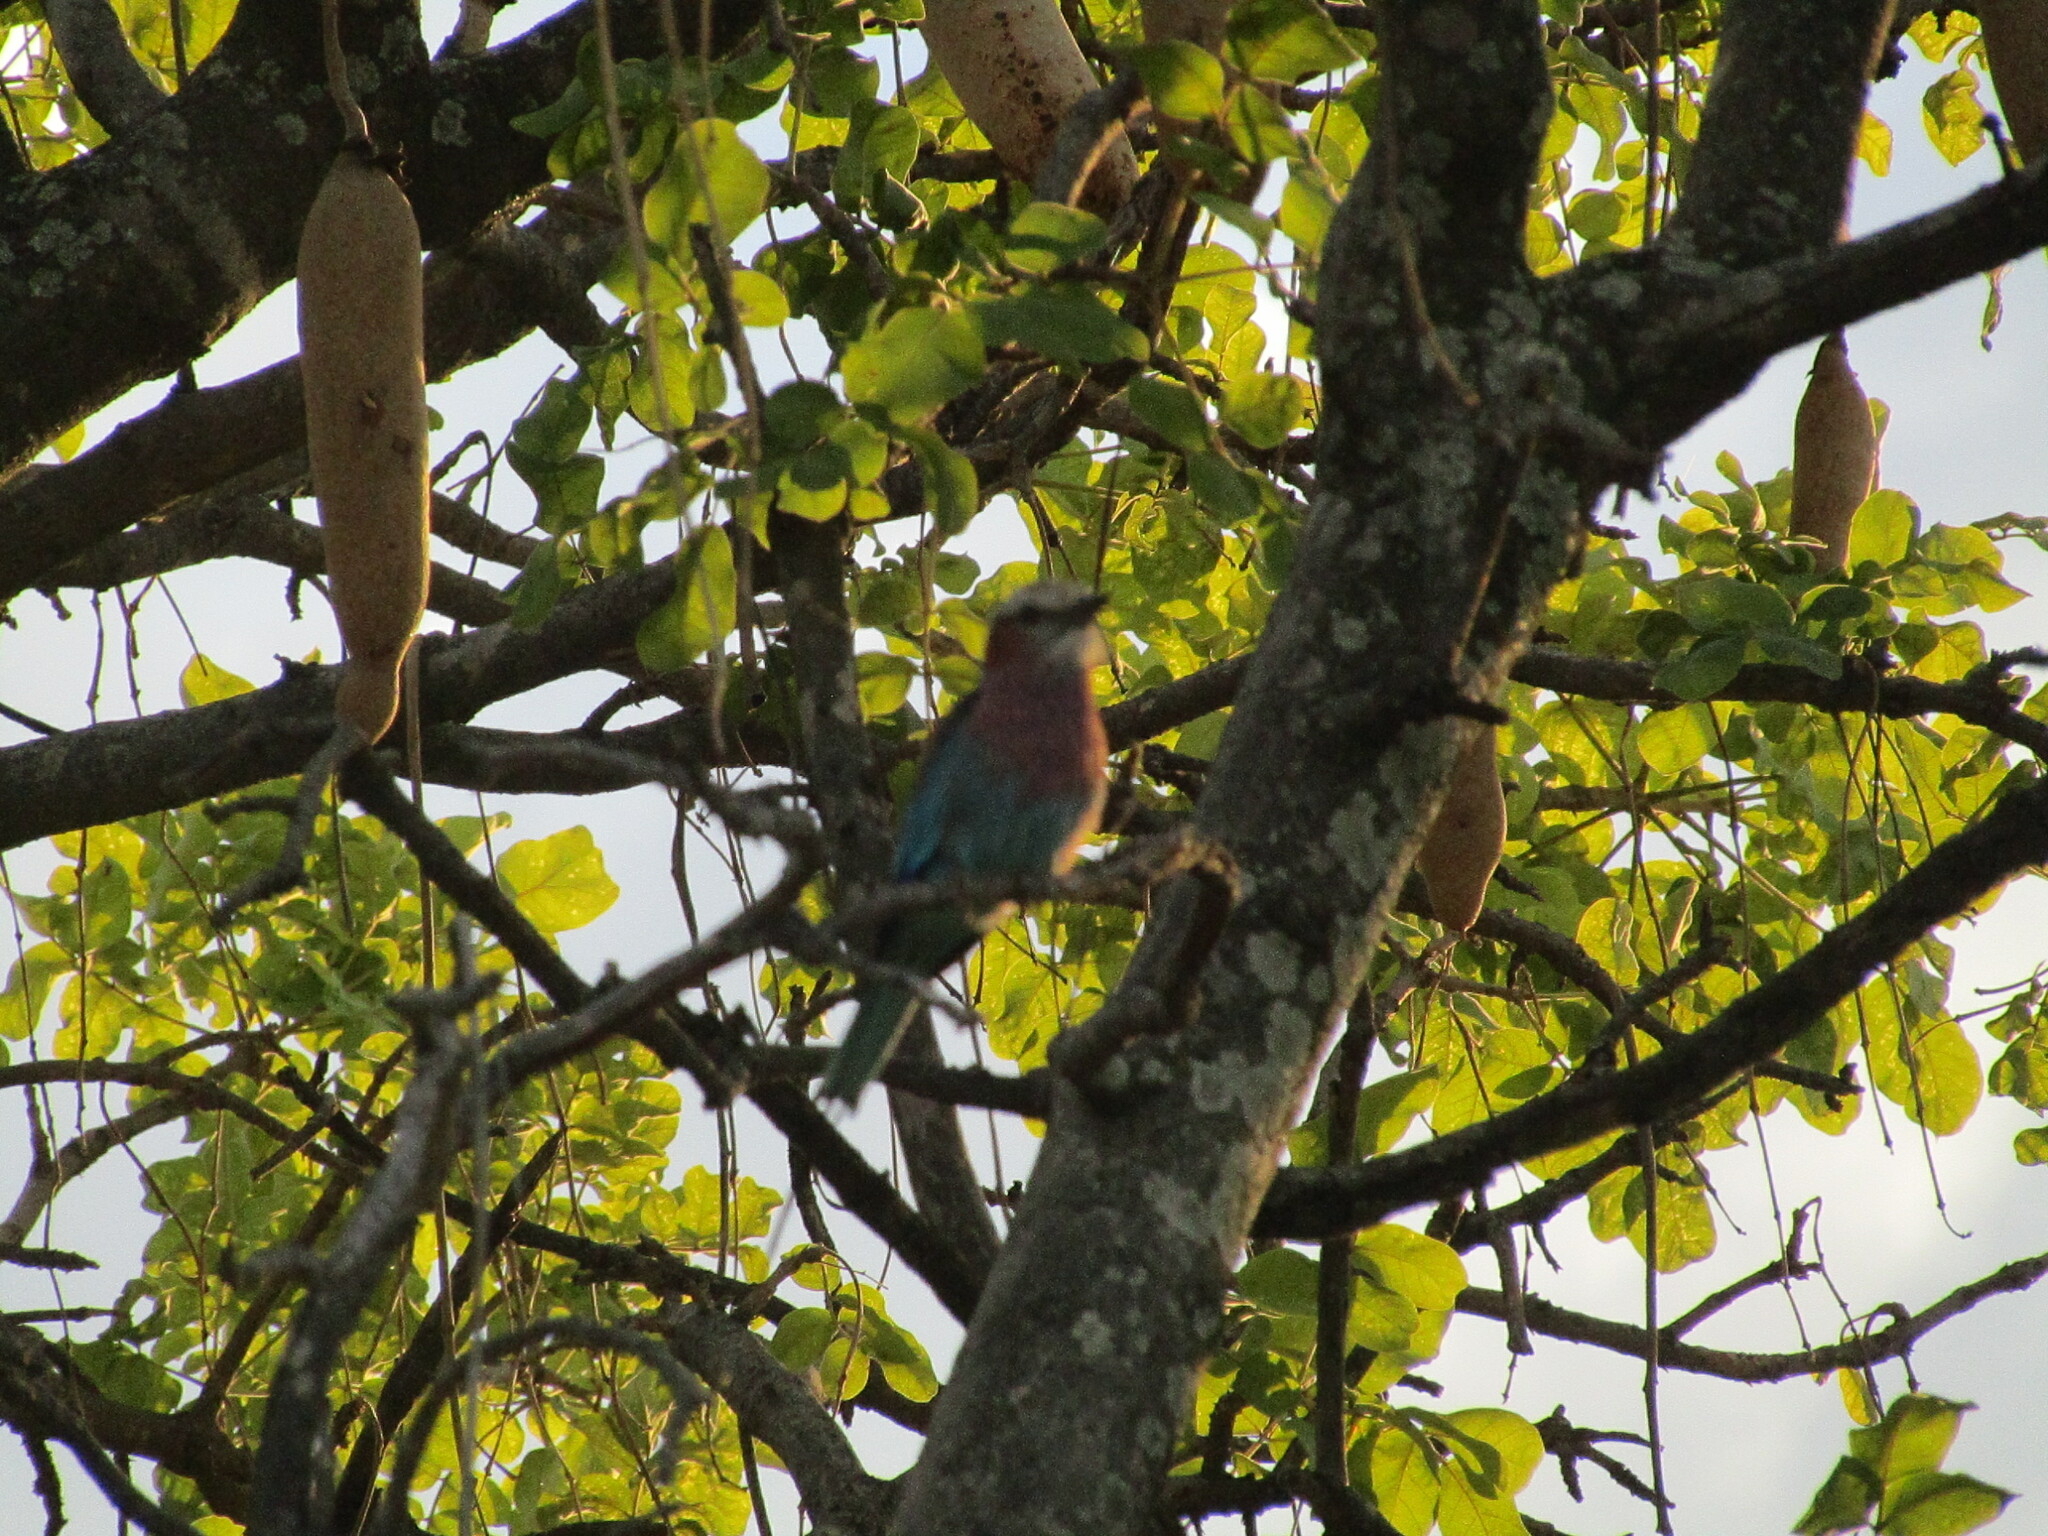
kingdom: Animalia
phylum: Chordata
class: Aves
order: Coraciiformes
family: Coraciidae
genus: Coracias
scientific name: Coracias caudatus
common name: Lilac-breasted roller
